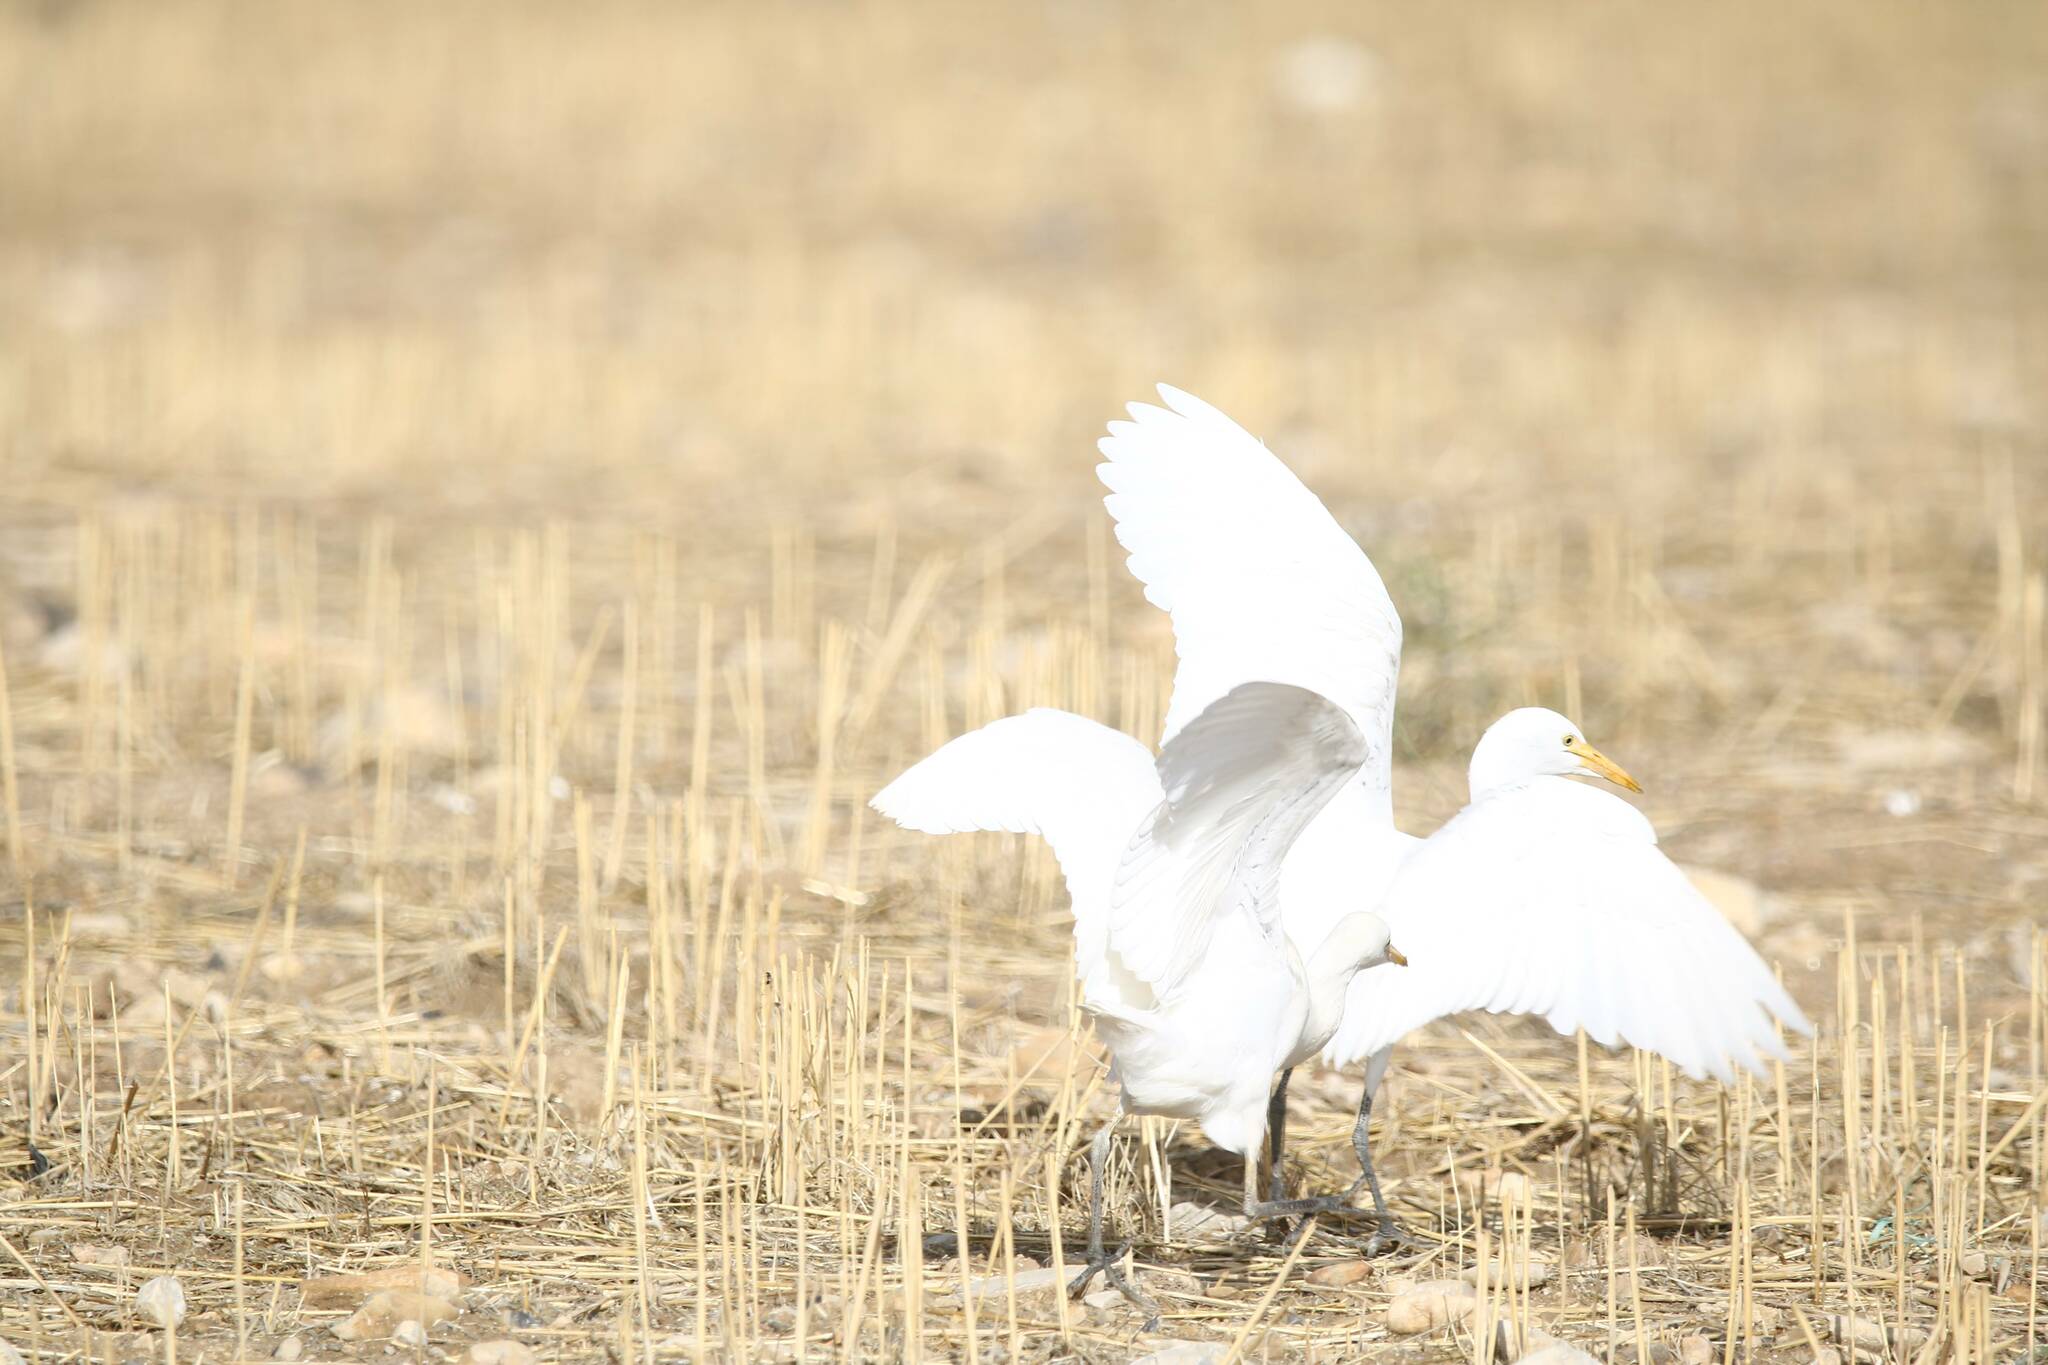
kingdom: Animalia
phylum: Chordata
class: Aves
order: Pelecaniformes
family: Ardeidae
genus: Bubulcus
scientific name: Bubulcus ibis
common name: Cattle egret
